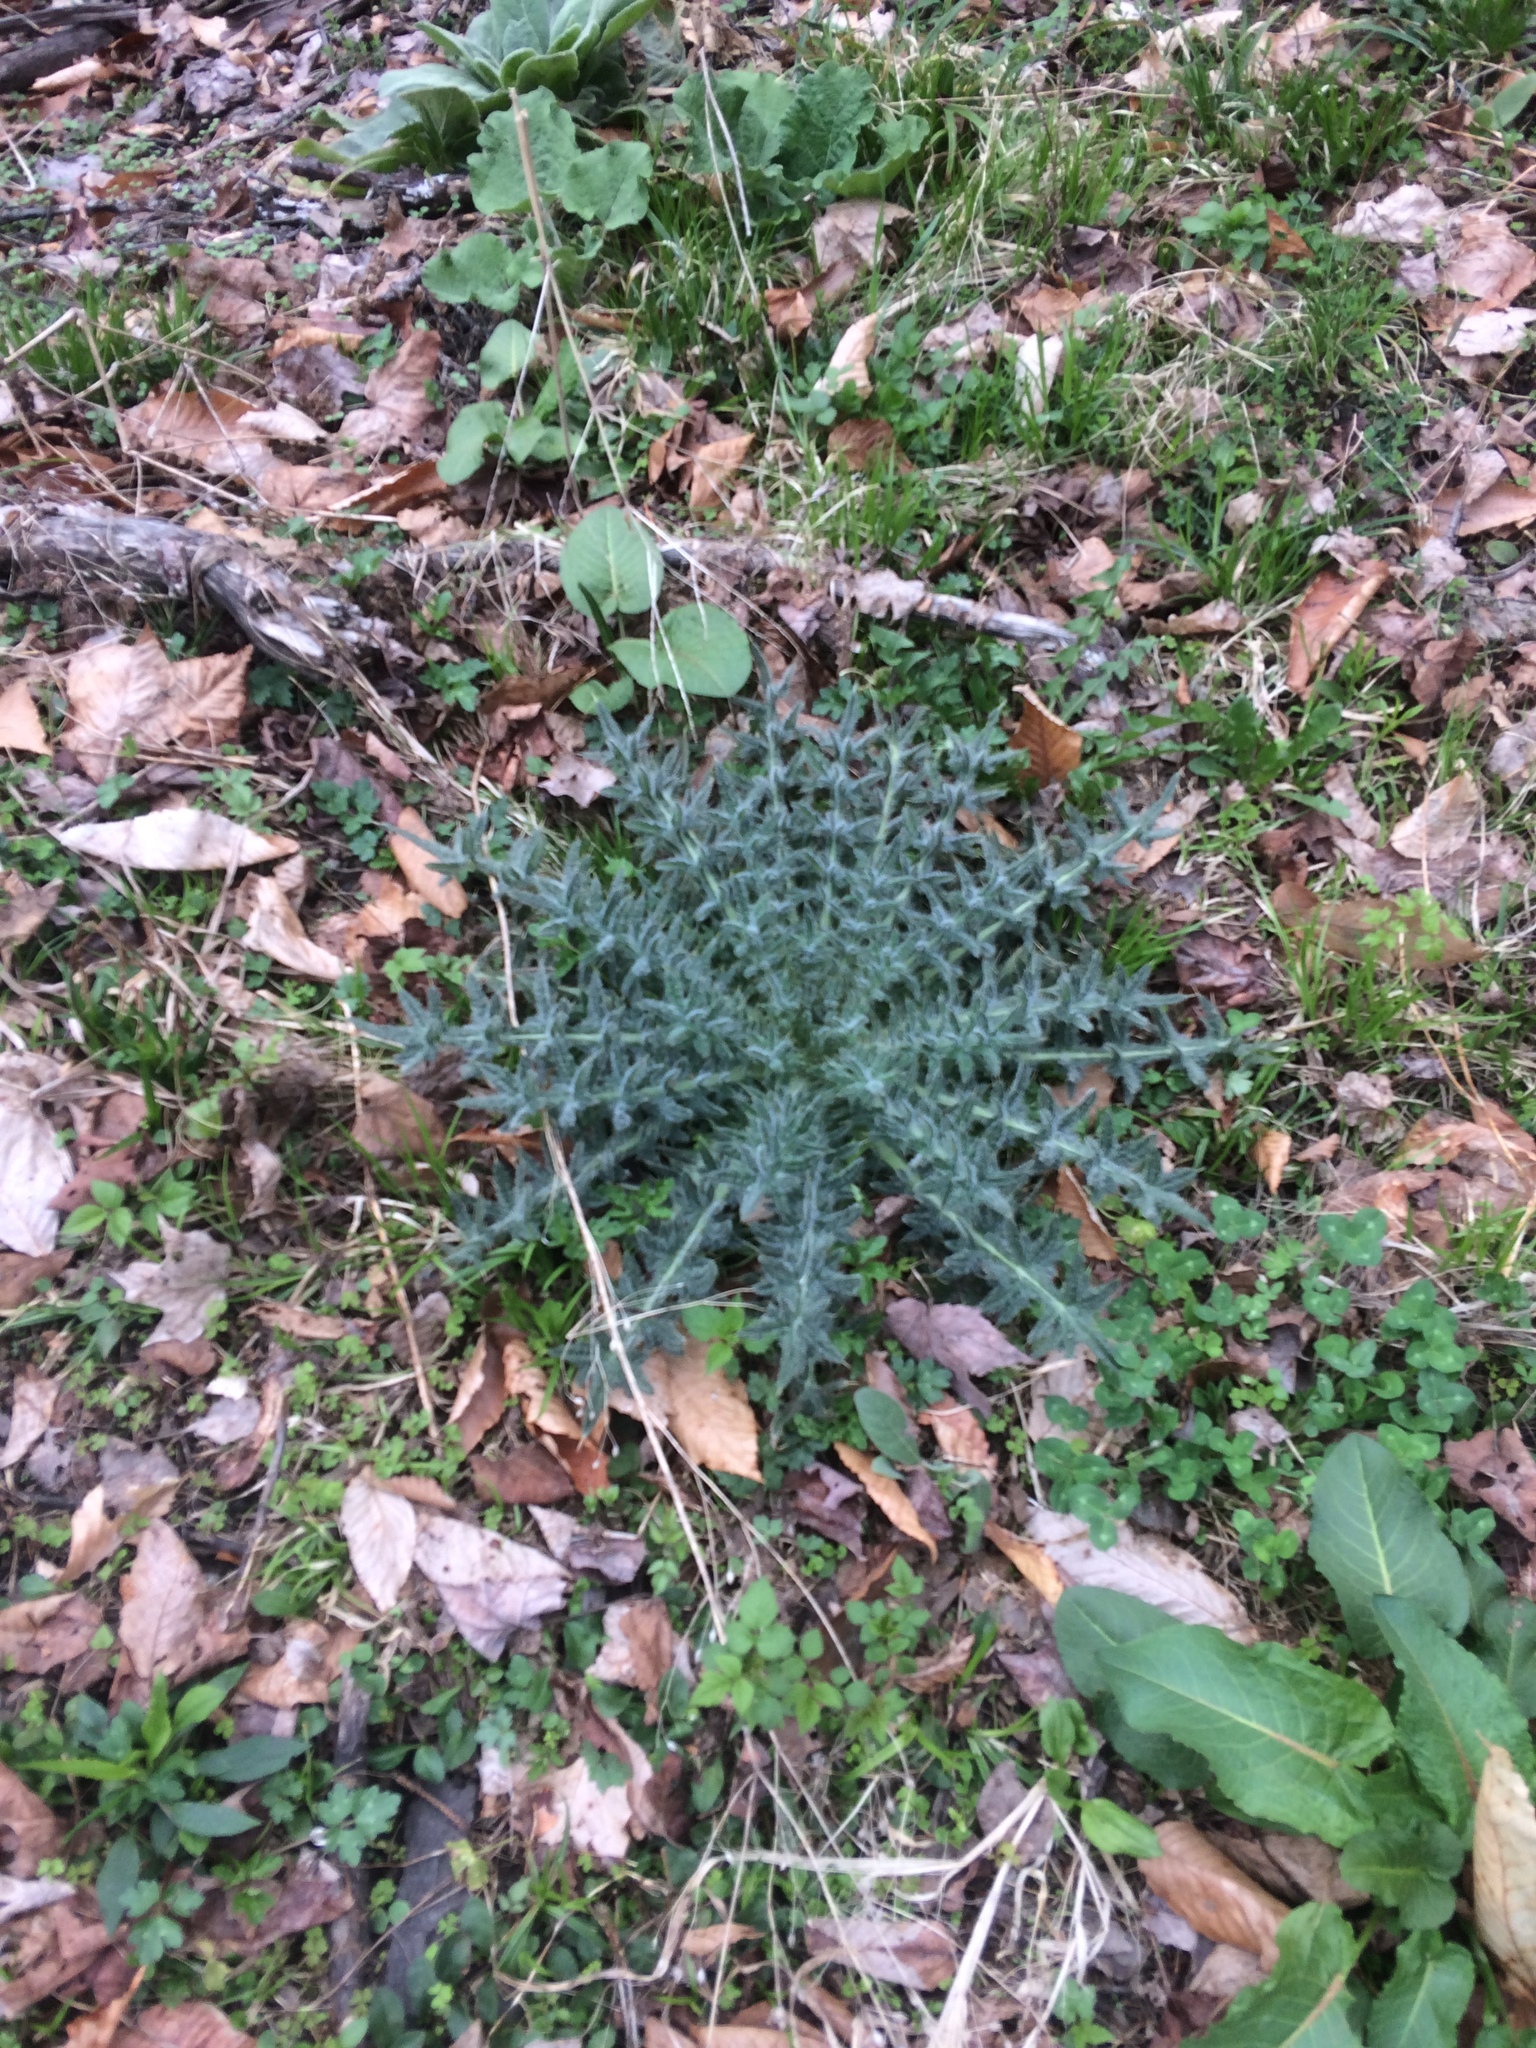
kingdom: Plantae
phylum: Tracheophyta
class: Magnoliopsida
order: Asterales
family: Asteraceae
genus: Cirsium
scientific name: Cirsium vulgare
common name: Bull thistle
